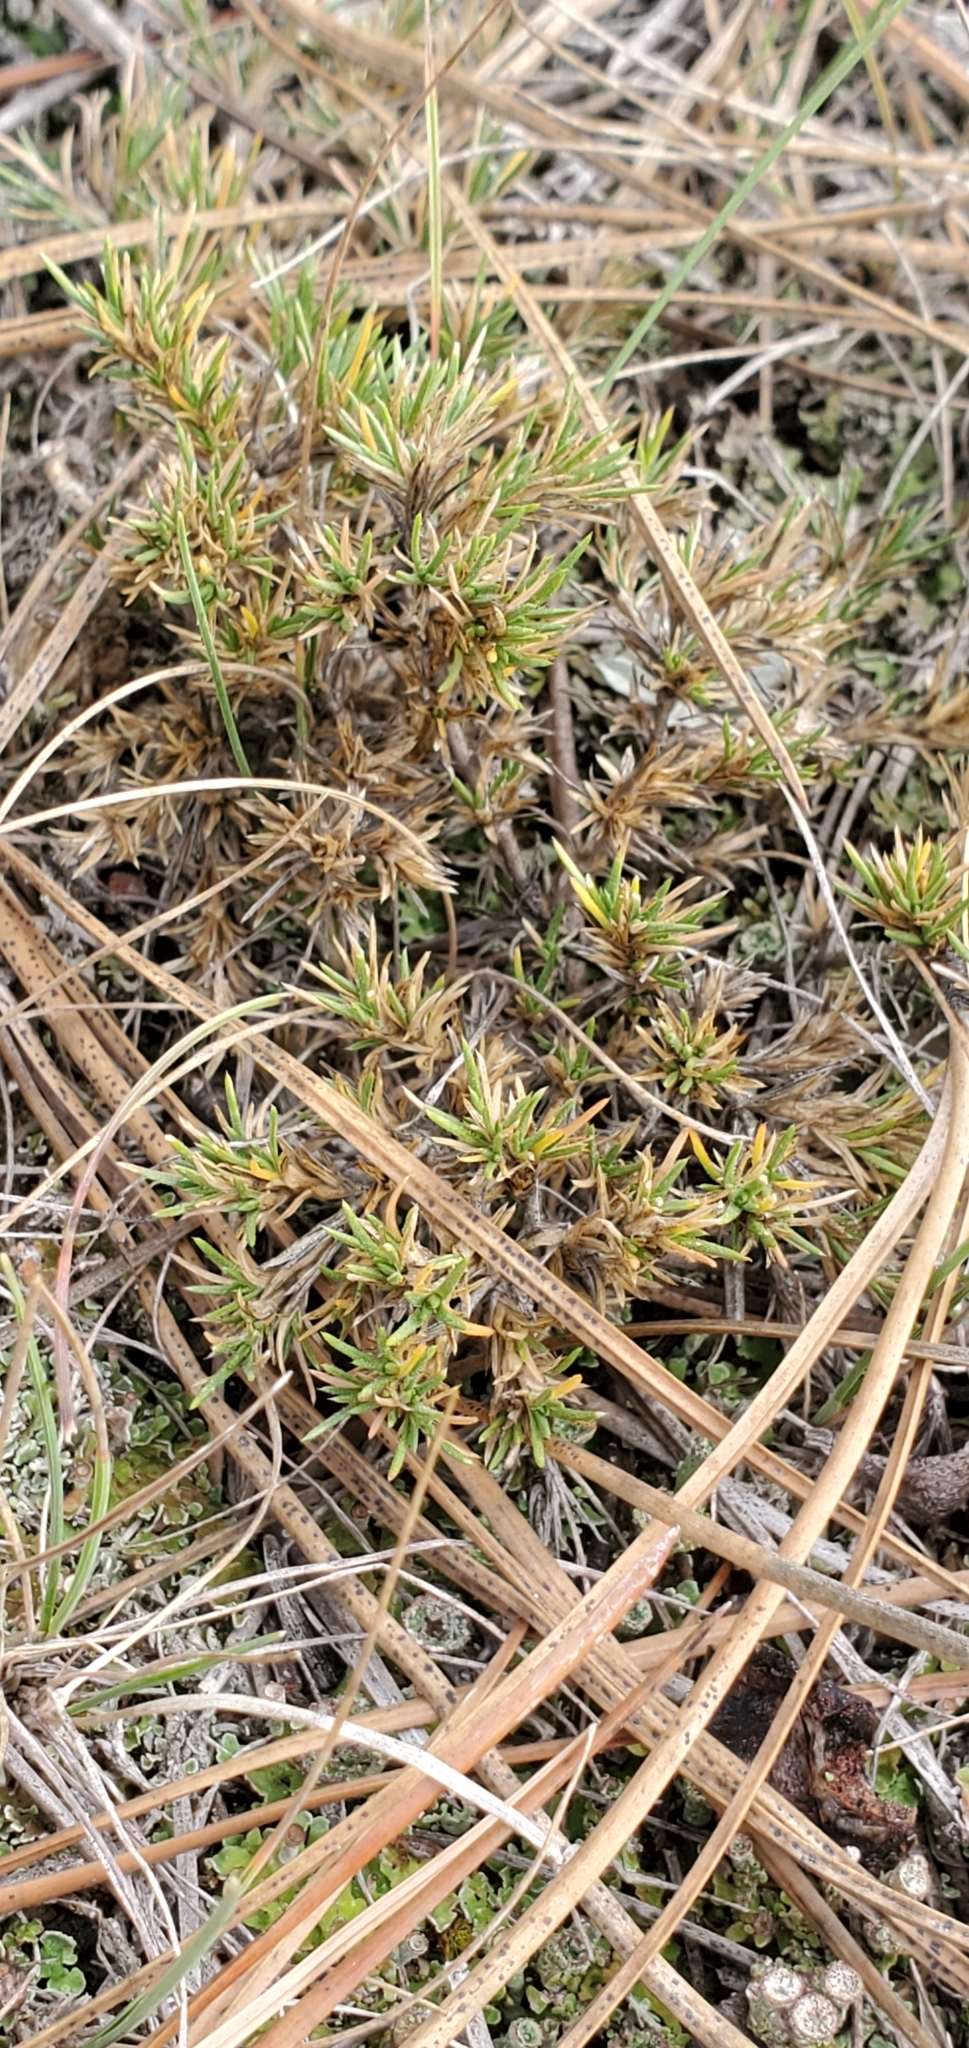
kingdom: Plantae
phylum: Tracheophyta
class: Magnoliopsida
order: Ericales
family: Polemoniaceae
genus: Phlox
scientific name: Phlox caespitosa
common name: Cushion phlox
